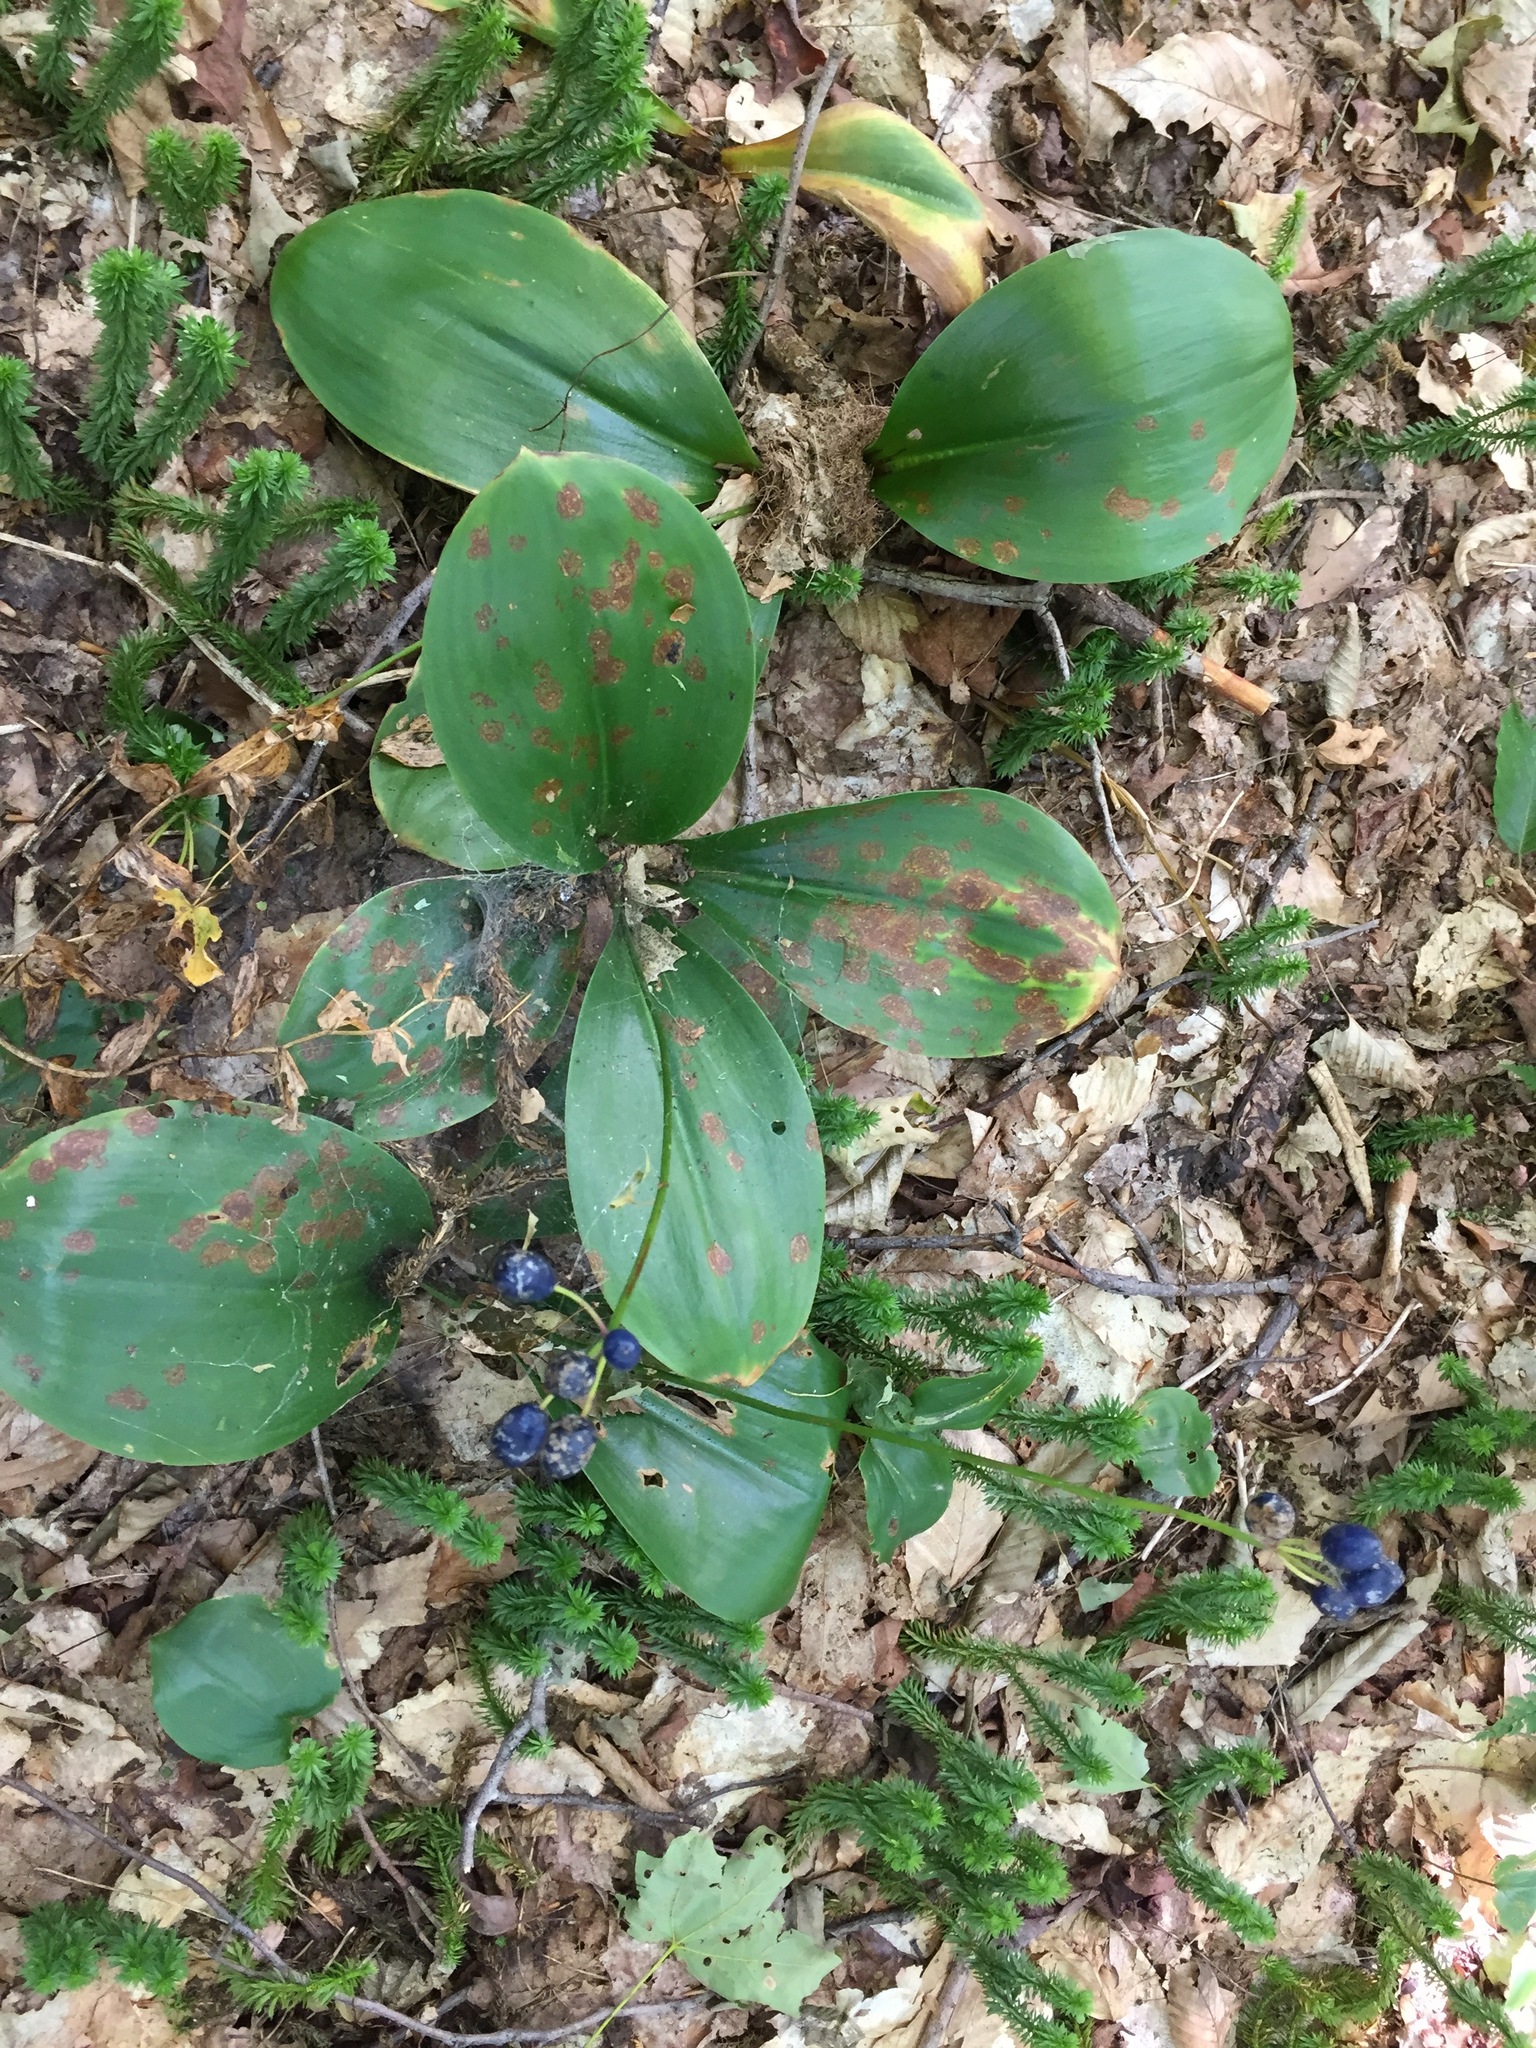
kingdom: Plantae
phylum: Tracheophyta
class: Liliopsida
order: Liliales
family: Liliaceae
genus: Clintonia
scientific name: Clintonia borealis
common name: Yellow clintonia
